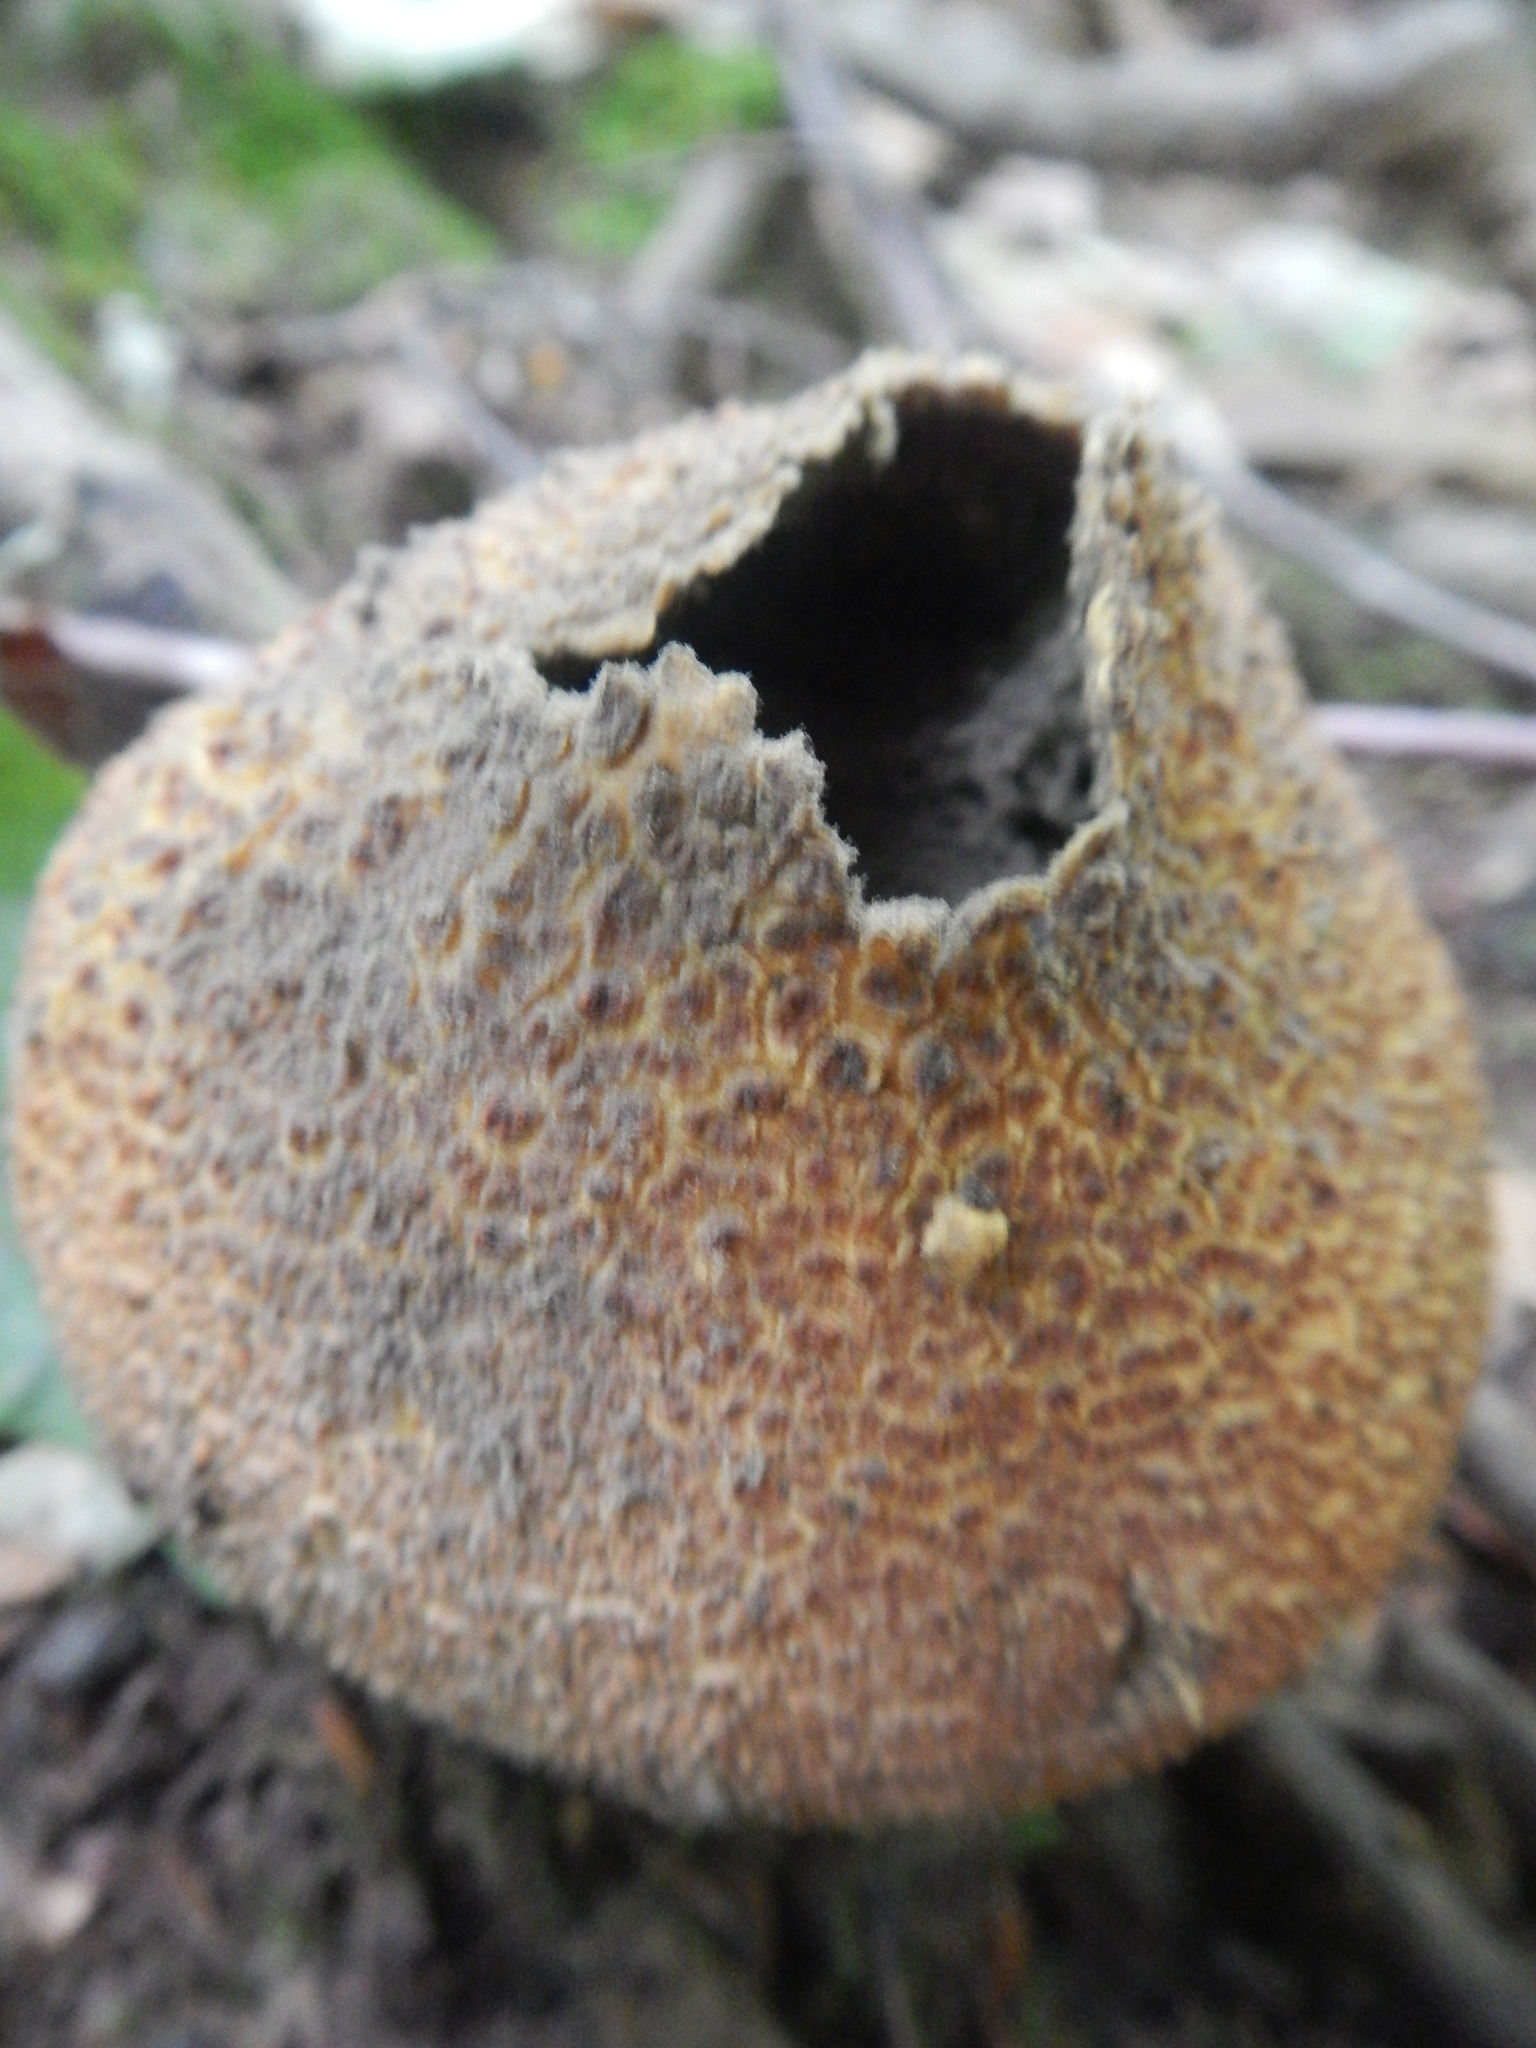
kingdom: Fungi
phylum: Basidiomycota
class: Agaricomycetes
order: Boletales
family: Sclerodermataceae
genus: Scleroderma
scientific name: Scleroderma citrinum
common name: Common earthball
